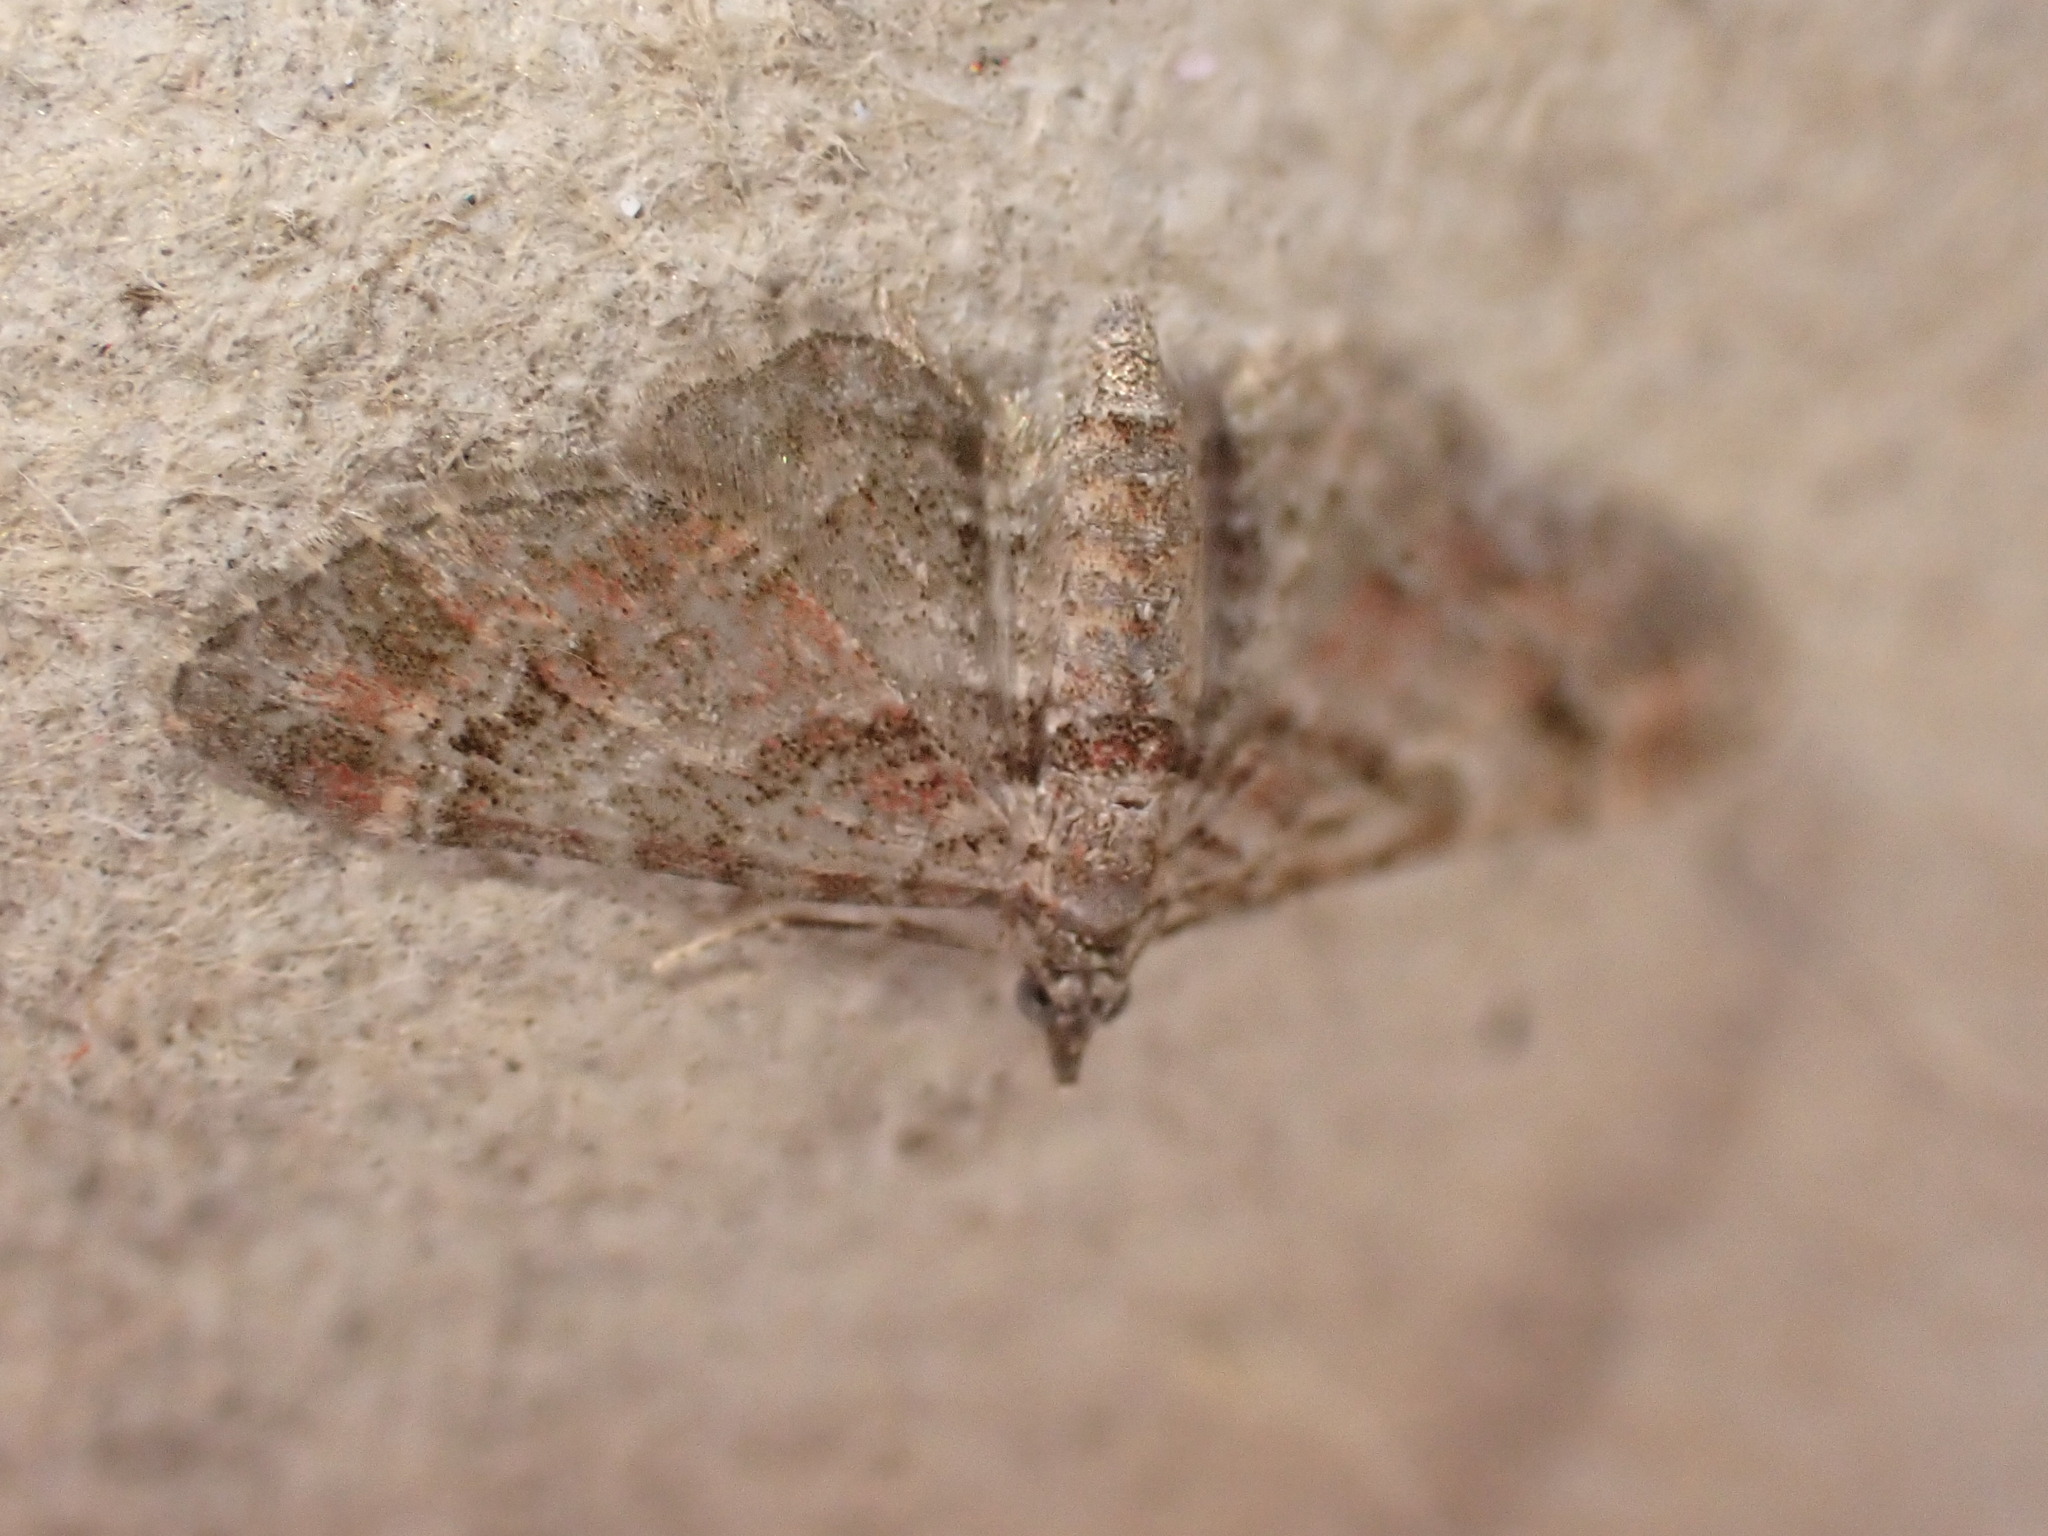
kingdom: Animalia
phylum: Arthropoda
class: Insecta
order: Lepidoptera
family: Geometridae
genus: Gymnoscelis
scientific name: Gymnoscelis rufifasciata
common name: Double-striped pug
